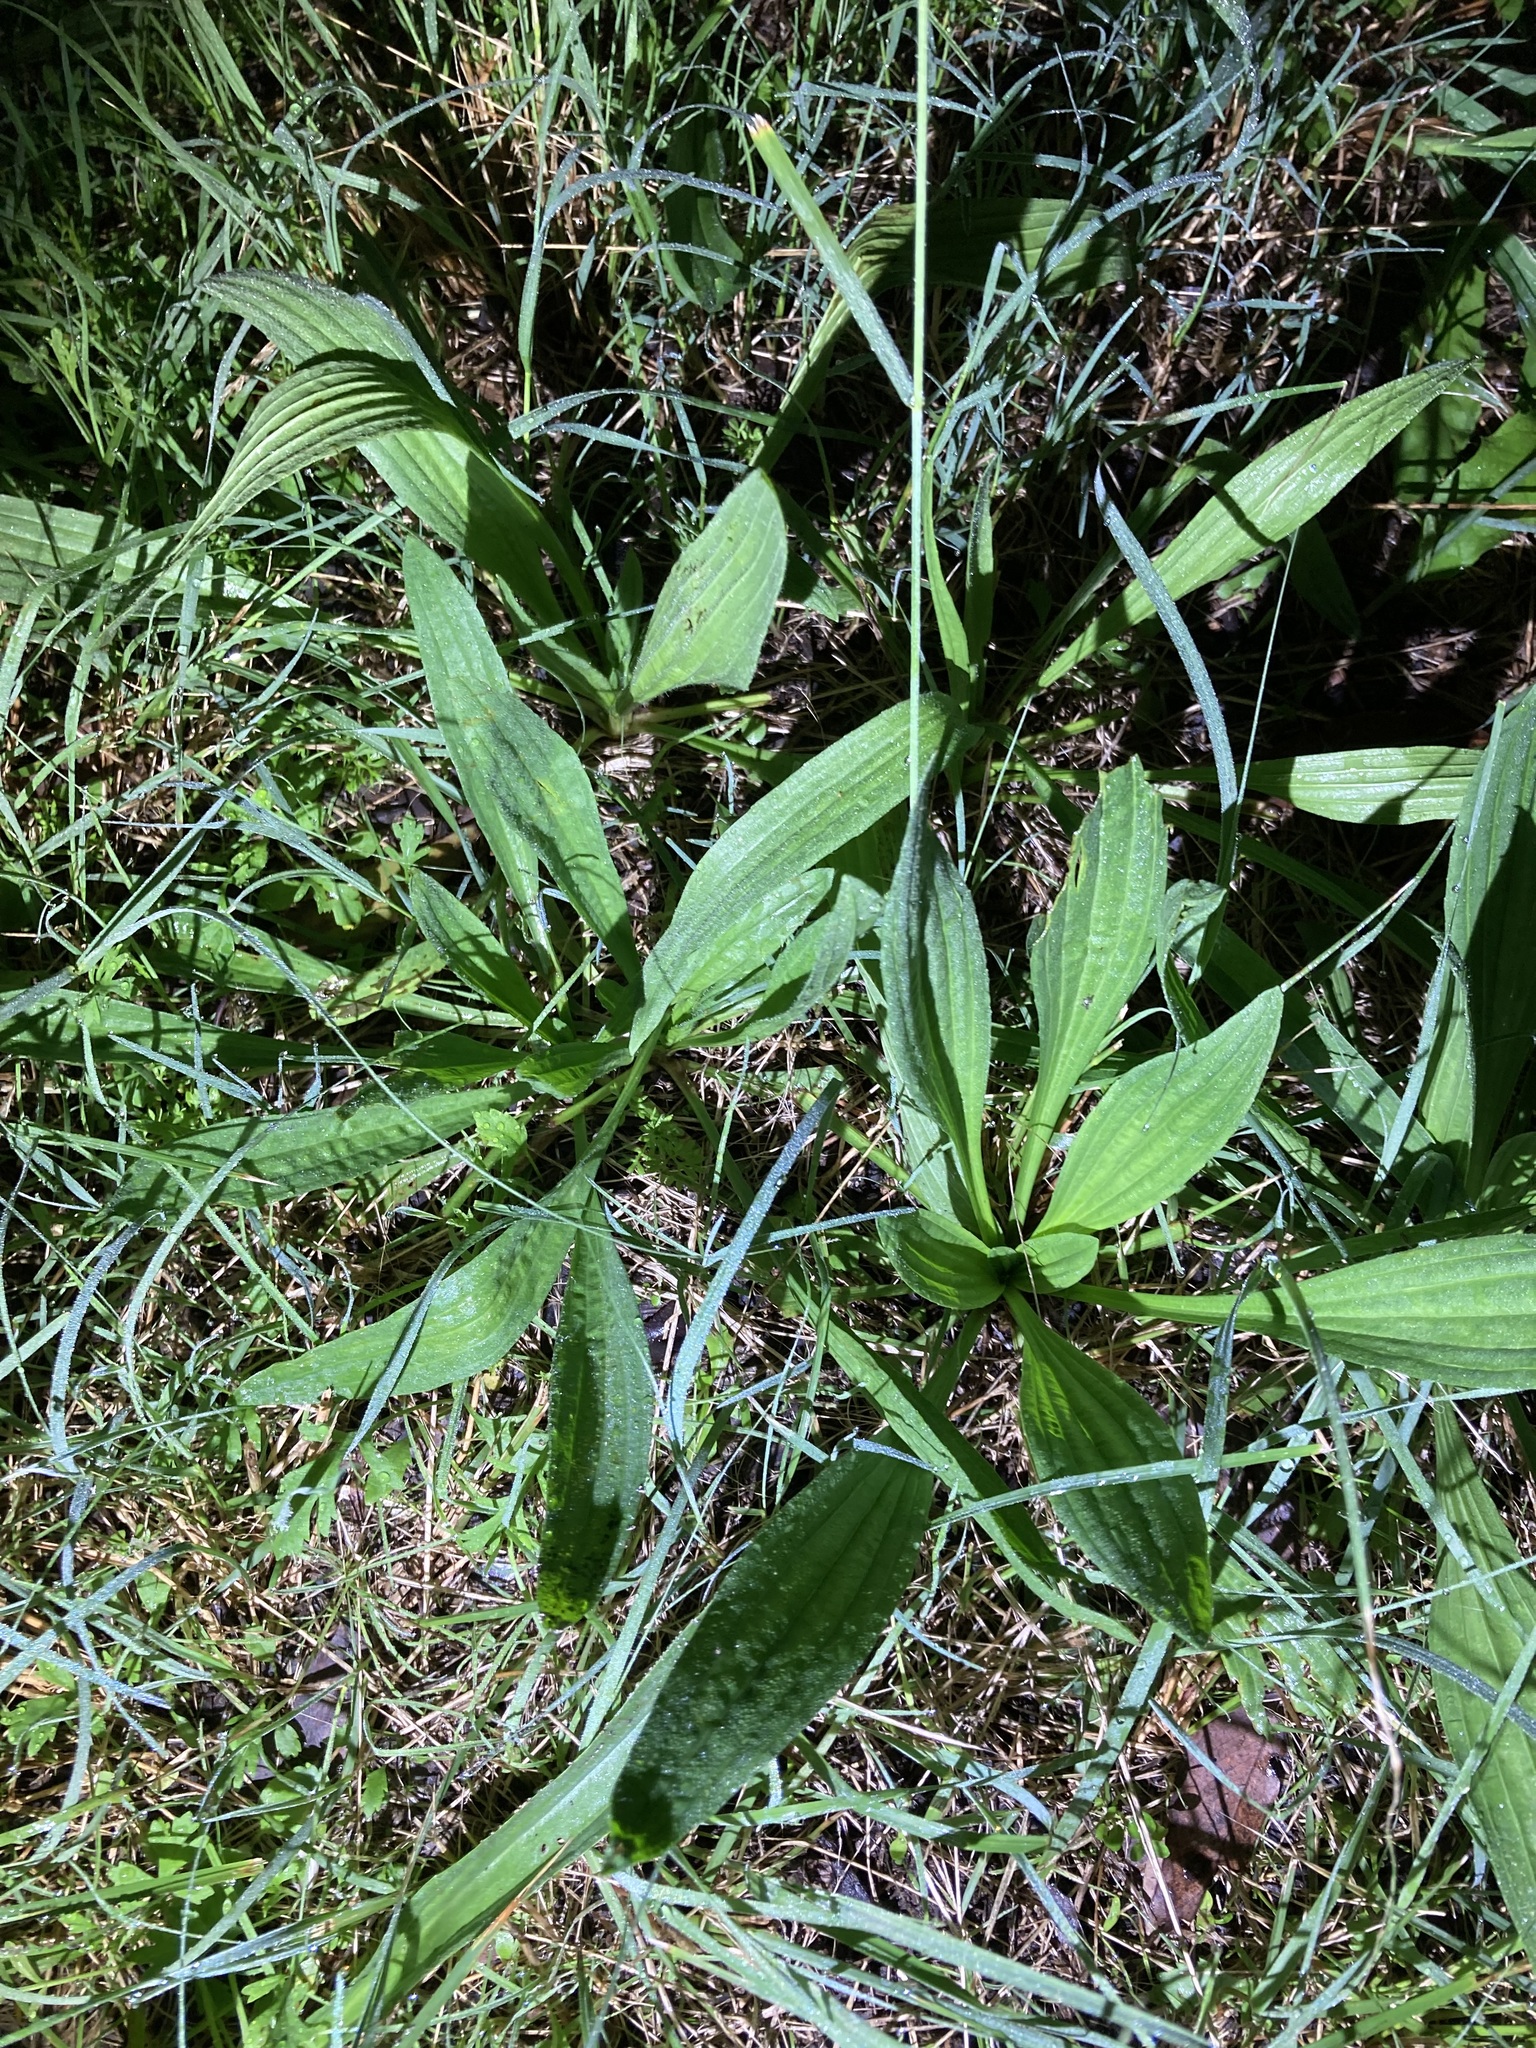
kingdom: Plantae
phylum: Tracheophyta
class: Magnoliopsida
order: Lamiales
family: Plantaginaceae
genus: Plantago
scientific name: Plantago lanceolata
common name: Ribwort plantain
